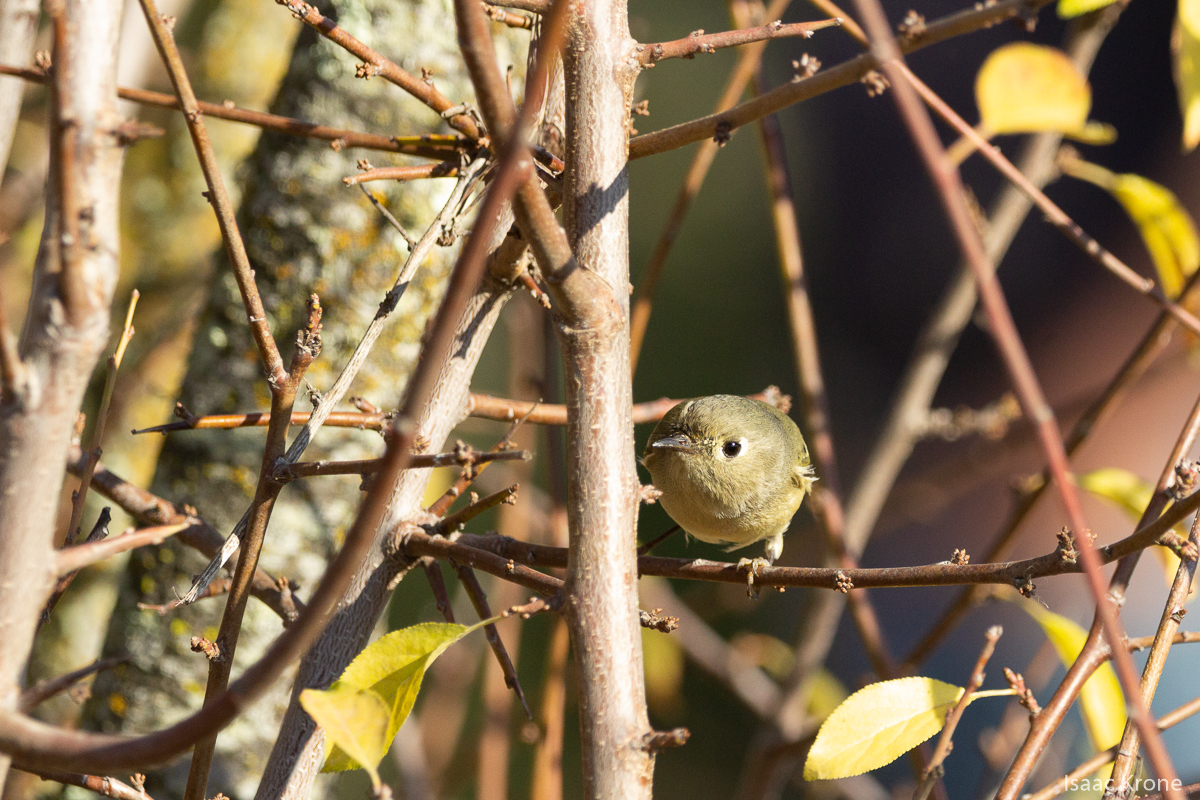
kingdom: Animalia
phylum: Chordata
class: Aves
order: Passeriformes
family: Regulidae
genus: Regulus
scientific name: Regulus calendula
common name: Ruby-crowned kinglet
